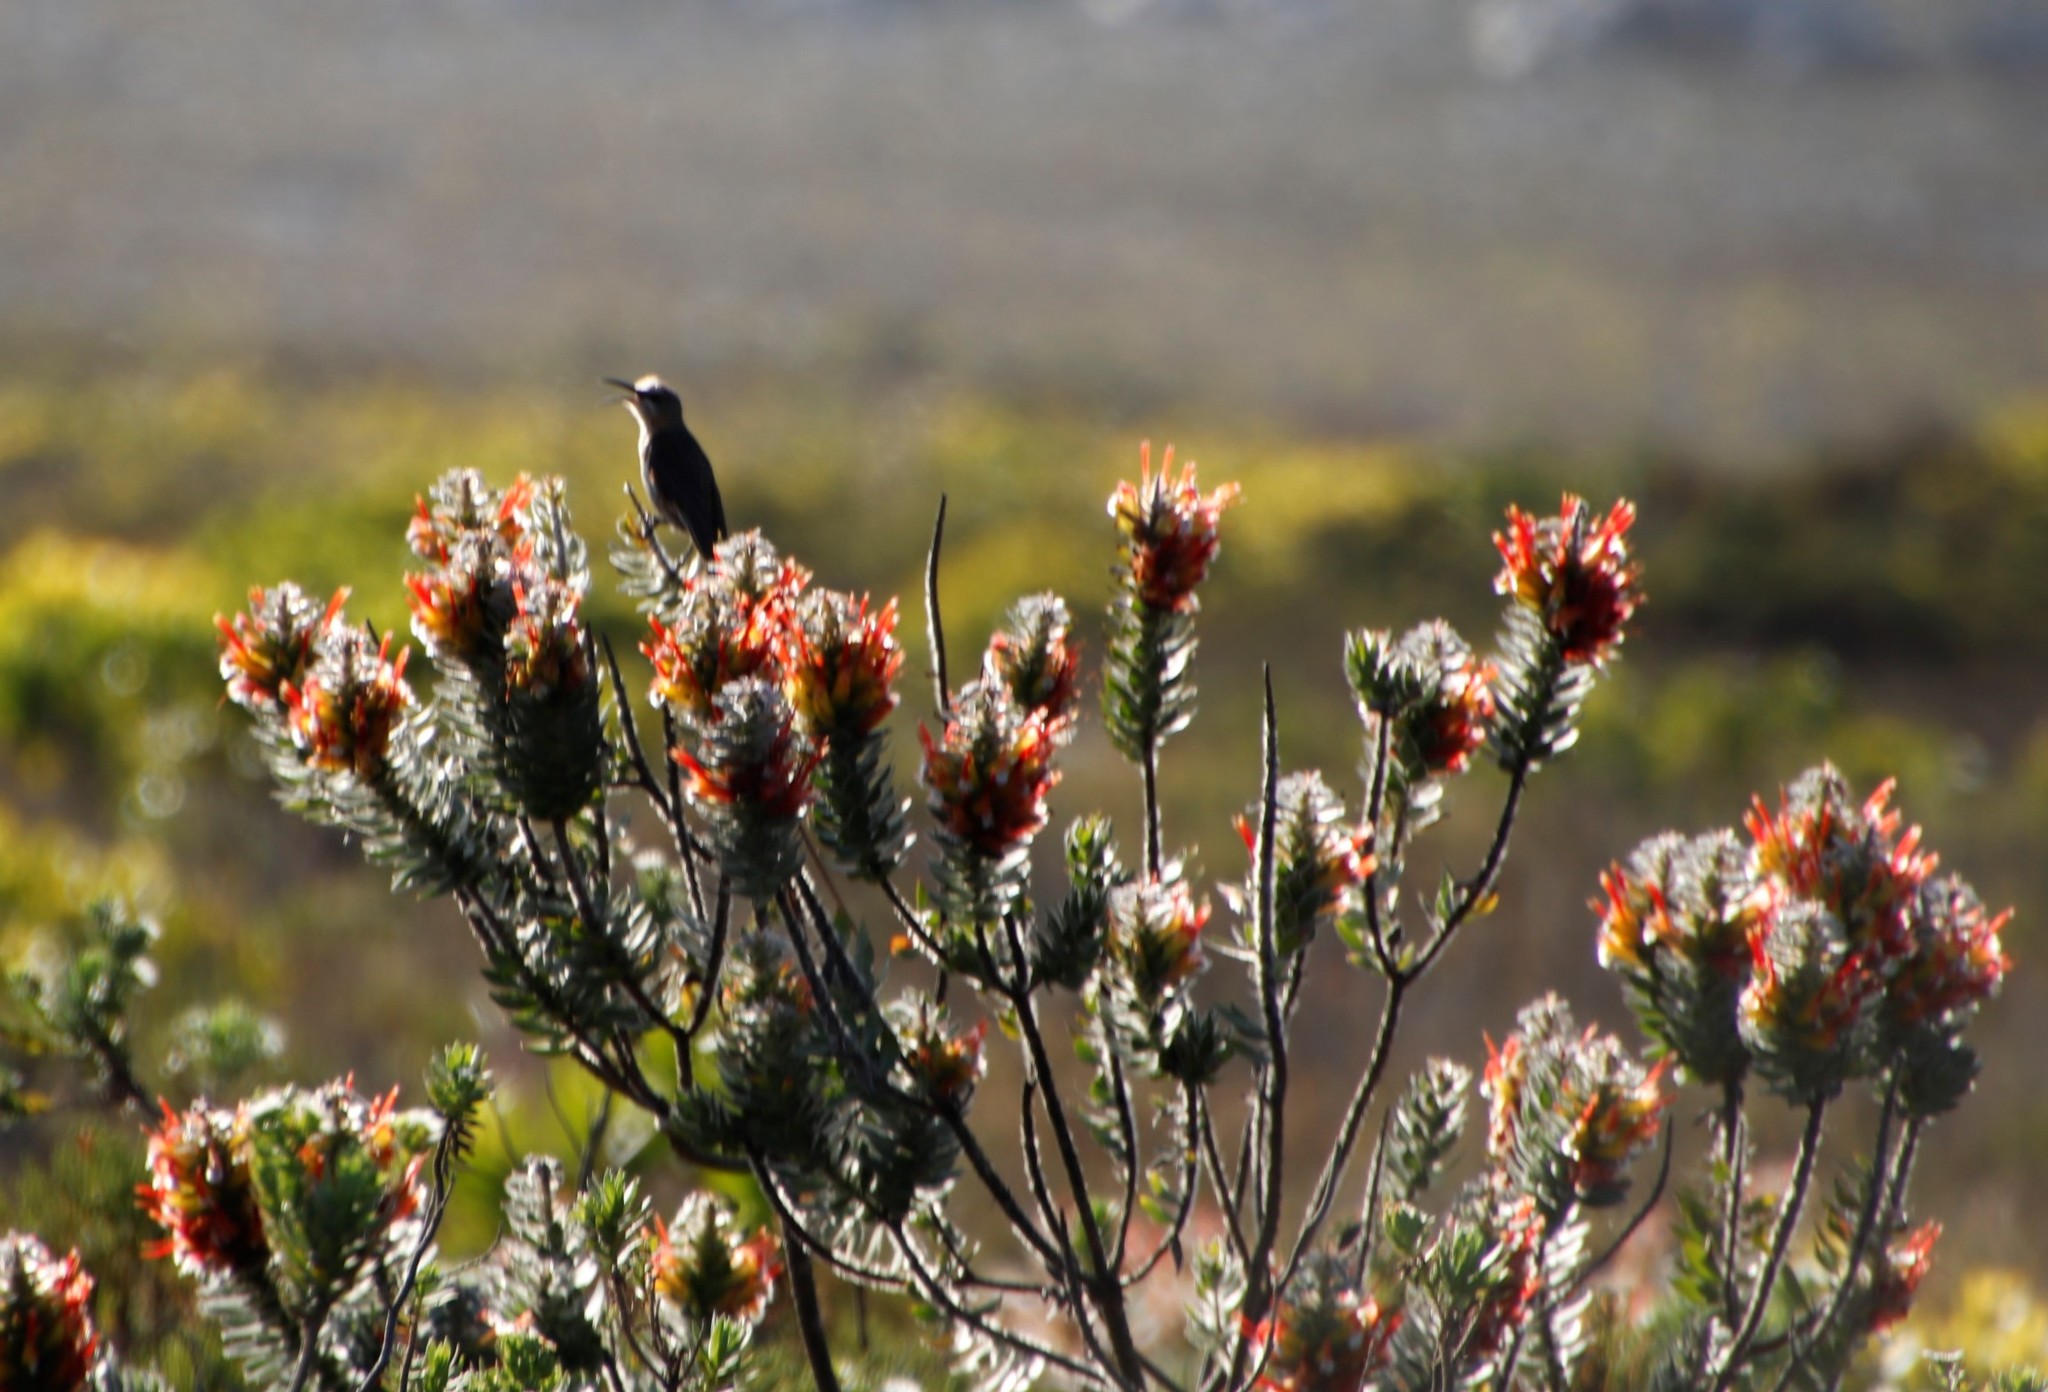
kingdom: Animalia
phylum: Chordata
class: Aves
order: Passeriformes
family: Promeropidae
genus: Promerops
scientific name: Promerops cafer
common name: Cape sugarbird
